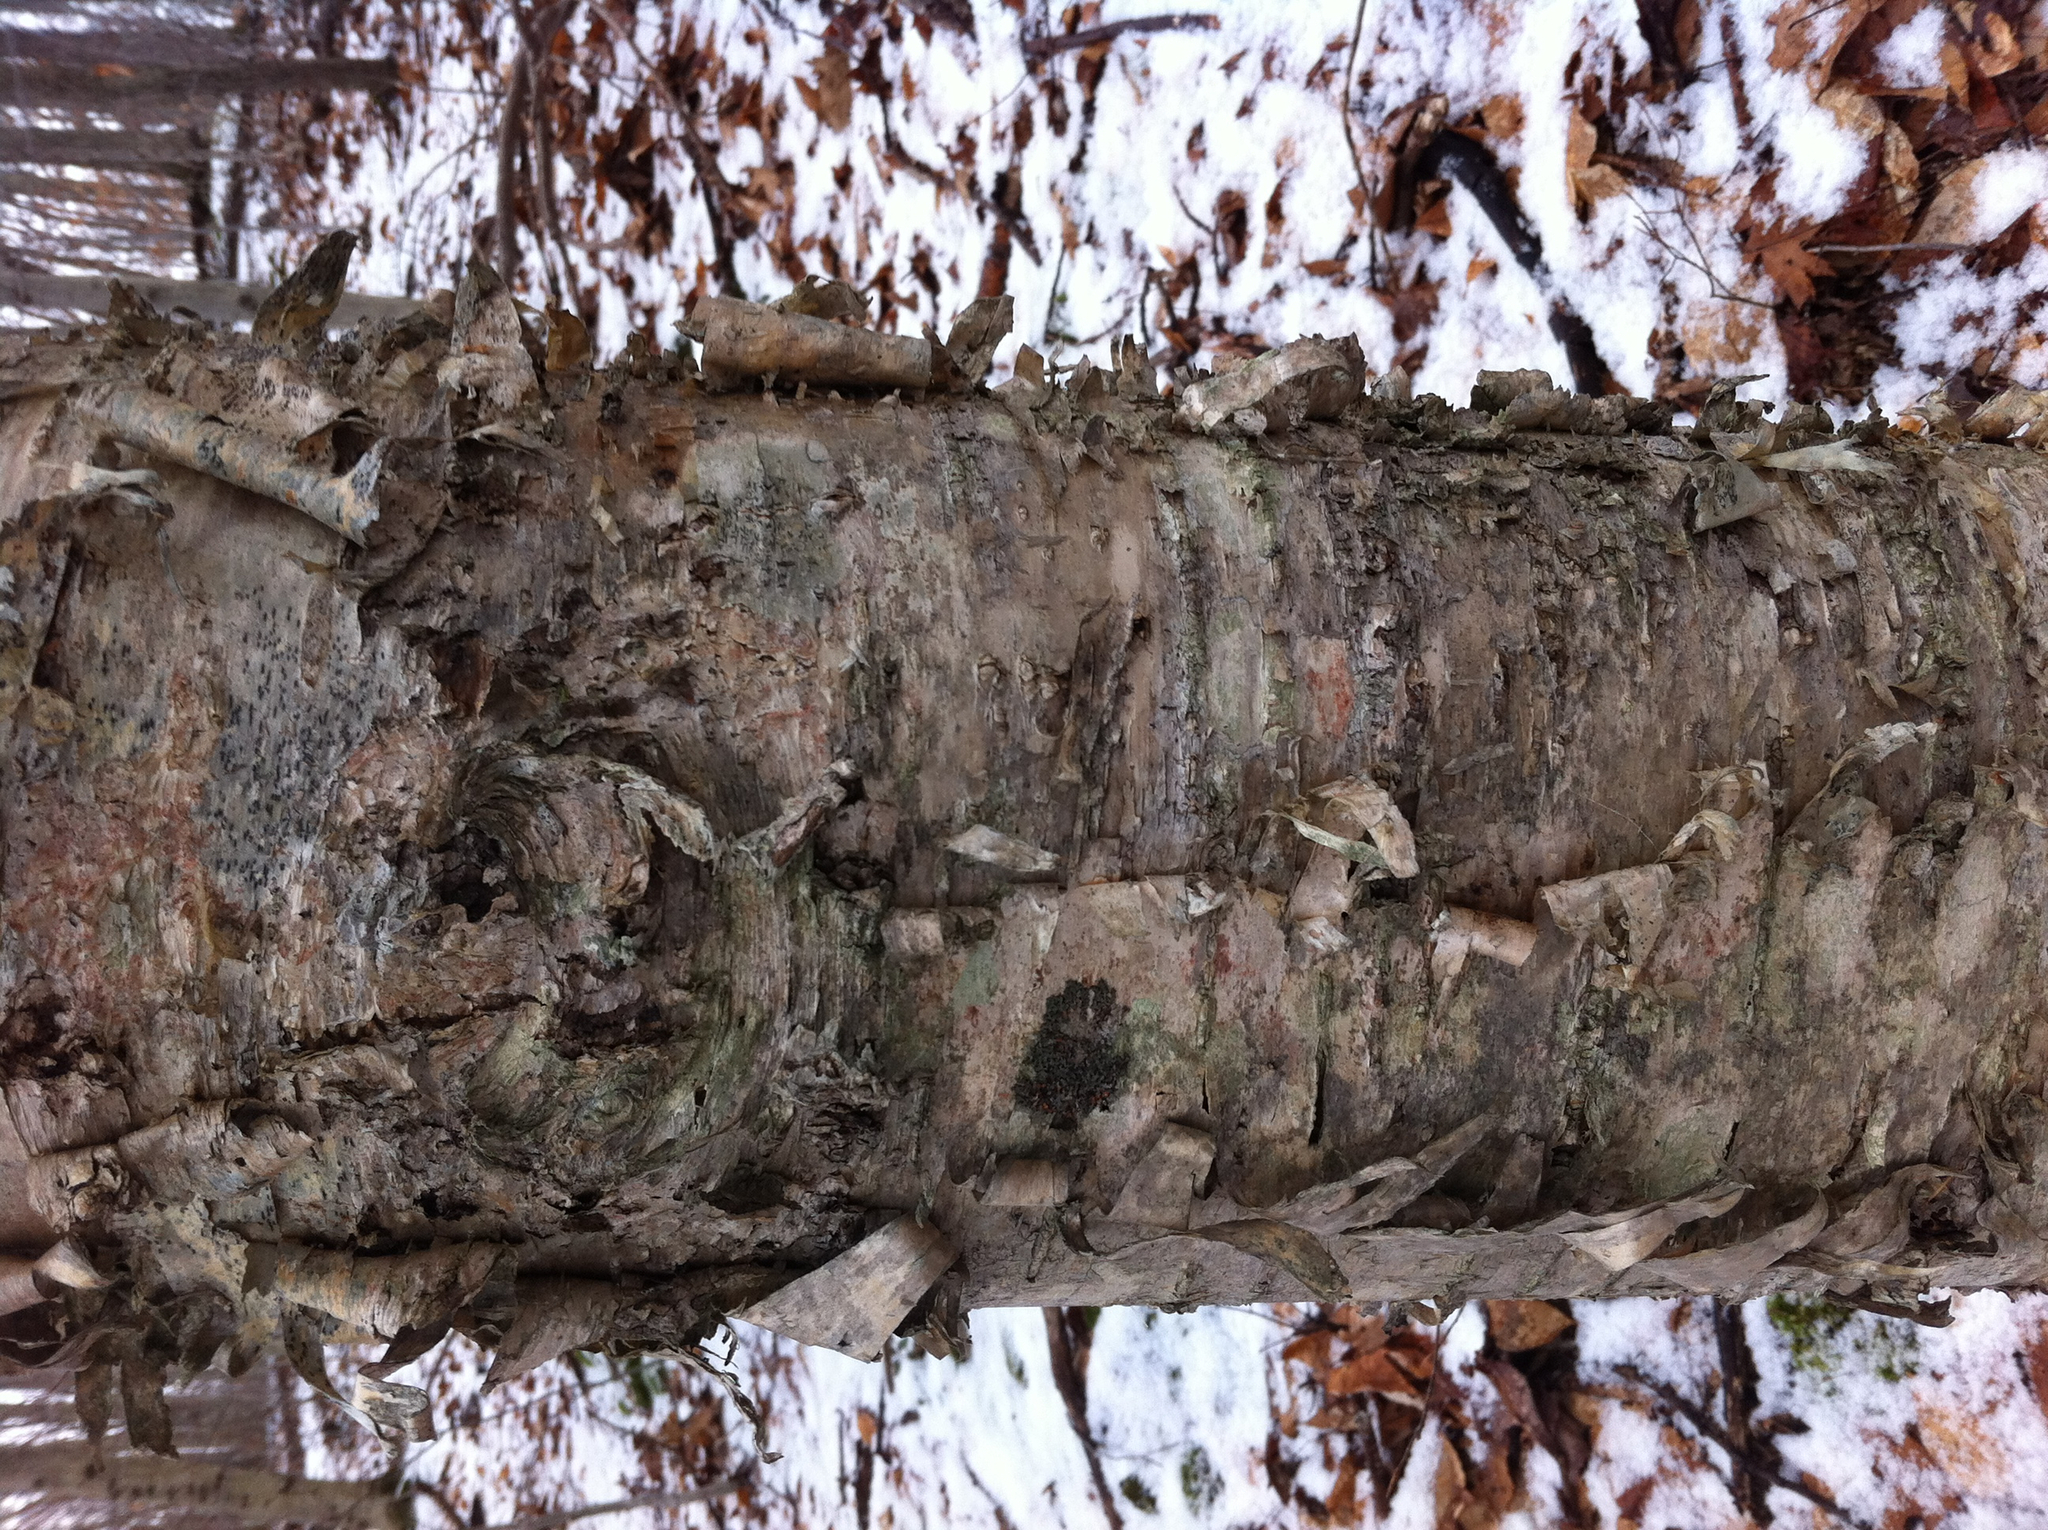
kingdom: Plantae
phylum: Tracheophyta
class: Magnoliopsida
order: Fagales
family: Betulaceae
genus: Betula
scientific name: Betula alleghaniensis
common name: Yellow birch
